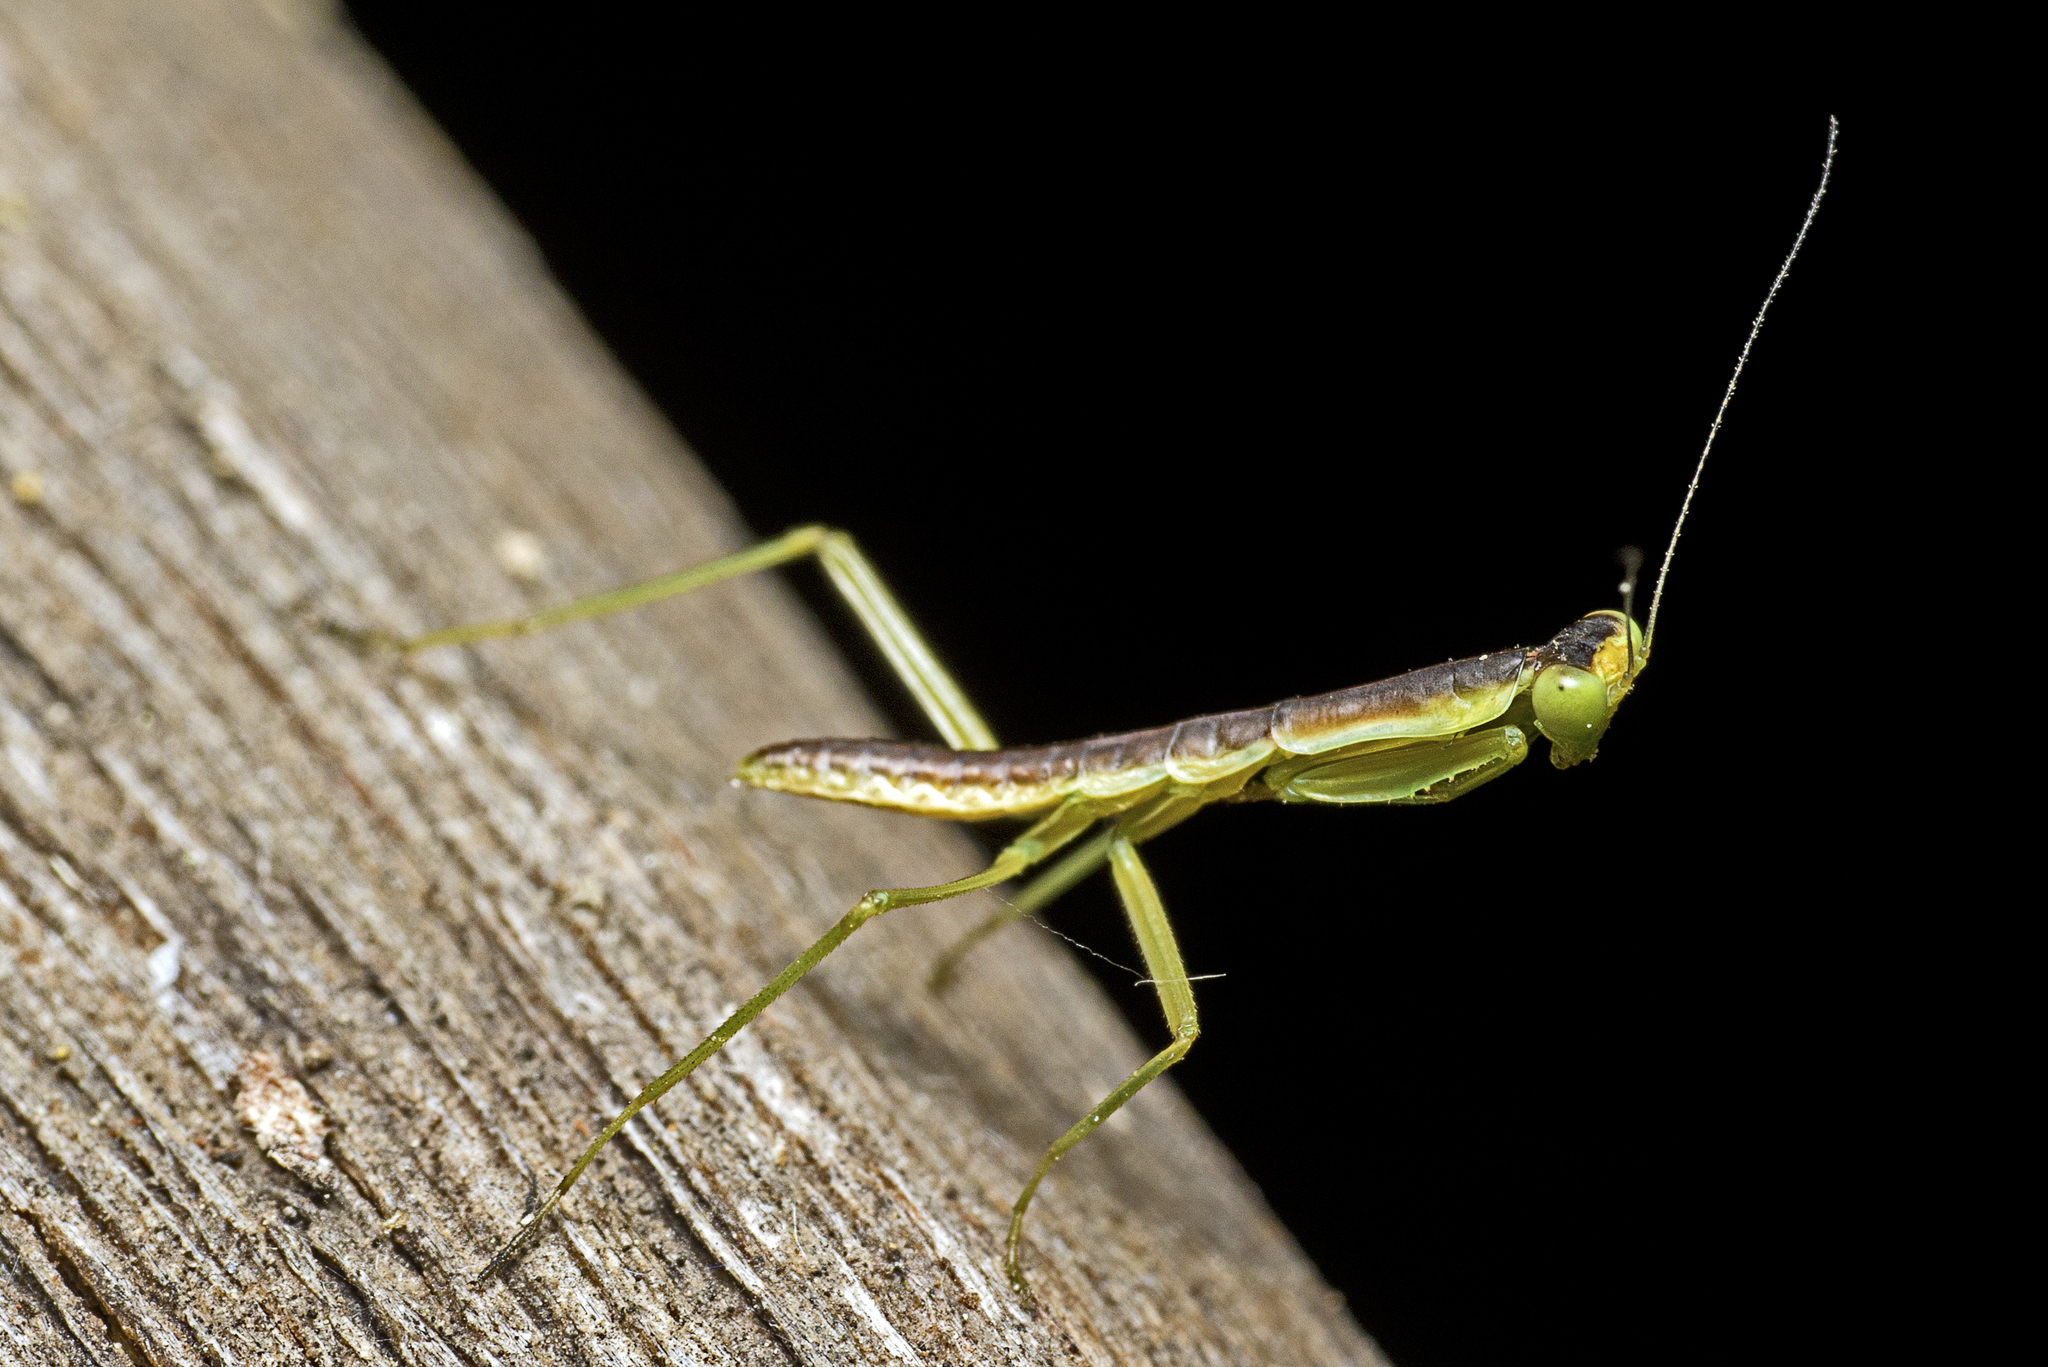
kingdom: Animalia
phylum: Arthropoda
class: Insecta
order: Mantodea
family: Mantidae
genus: Orthodera
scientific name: Orthodera ministralis
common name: Mantis
